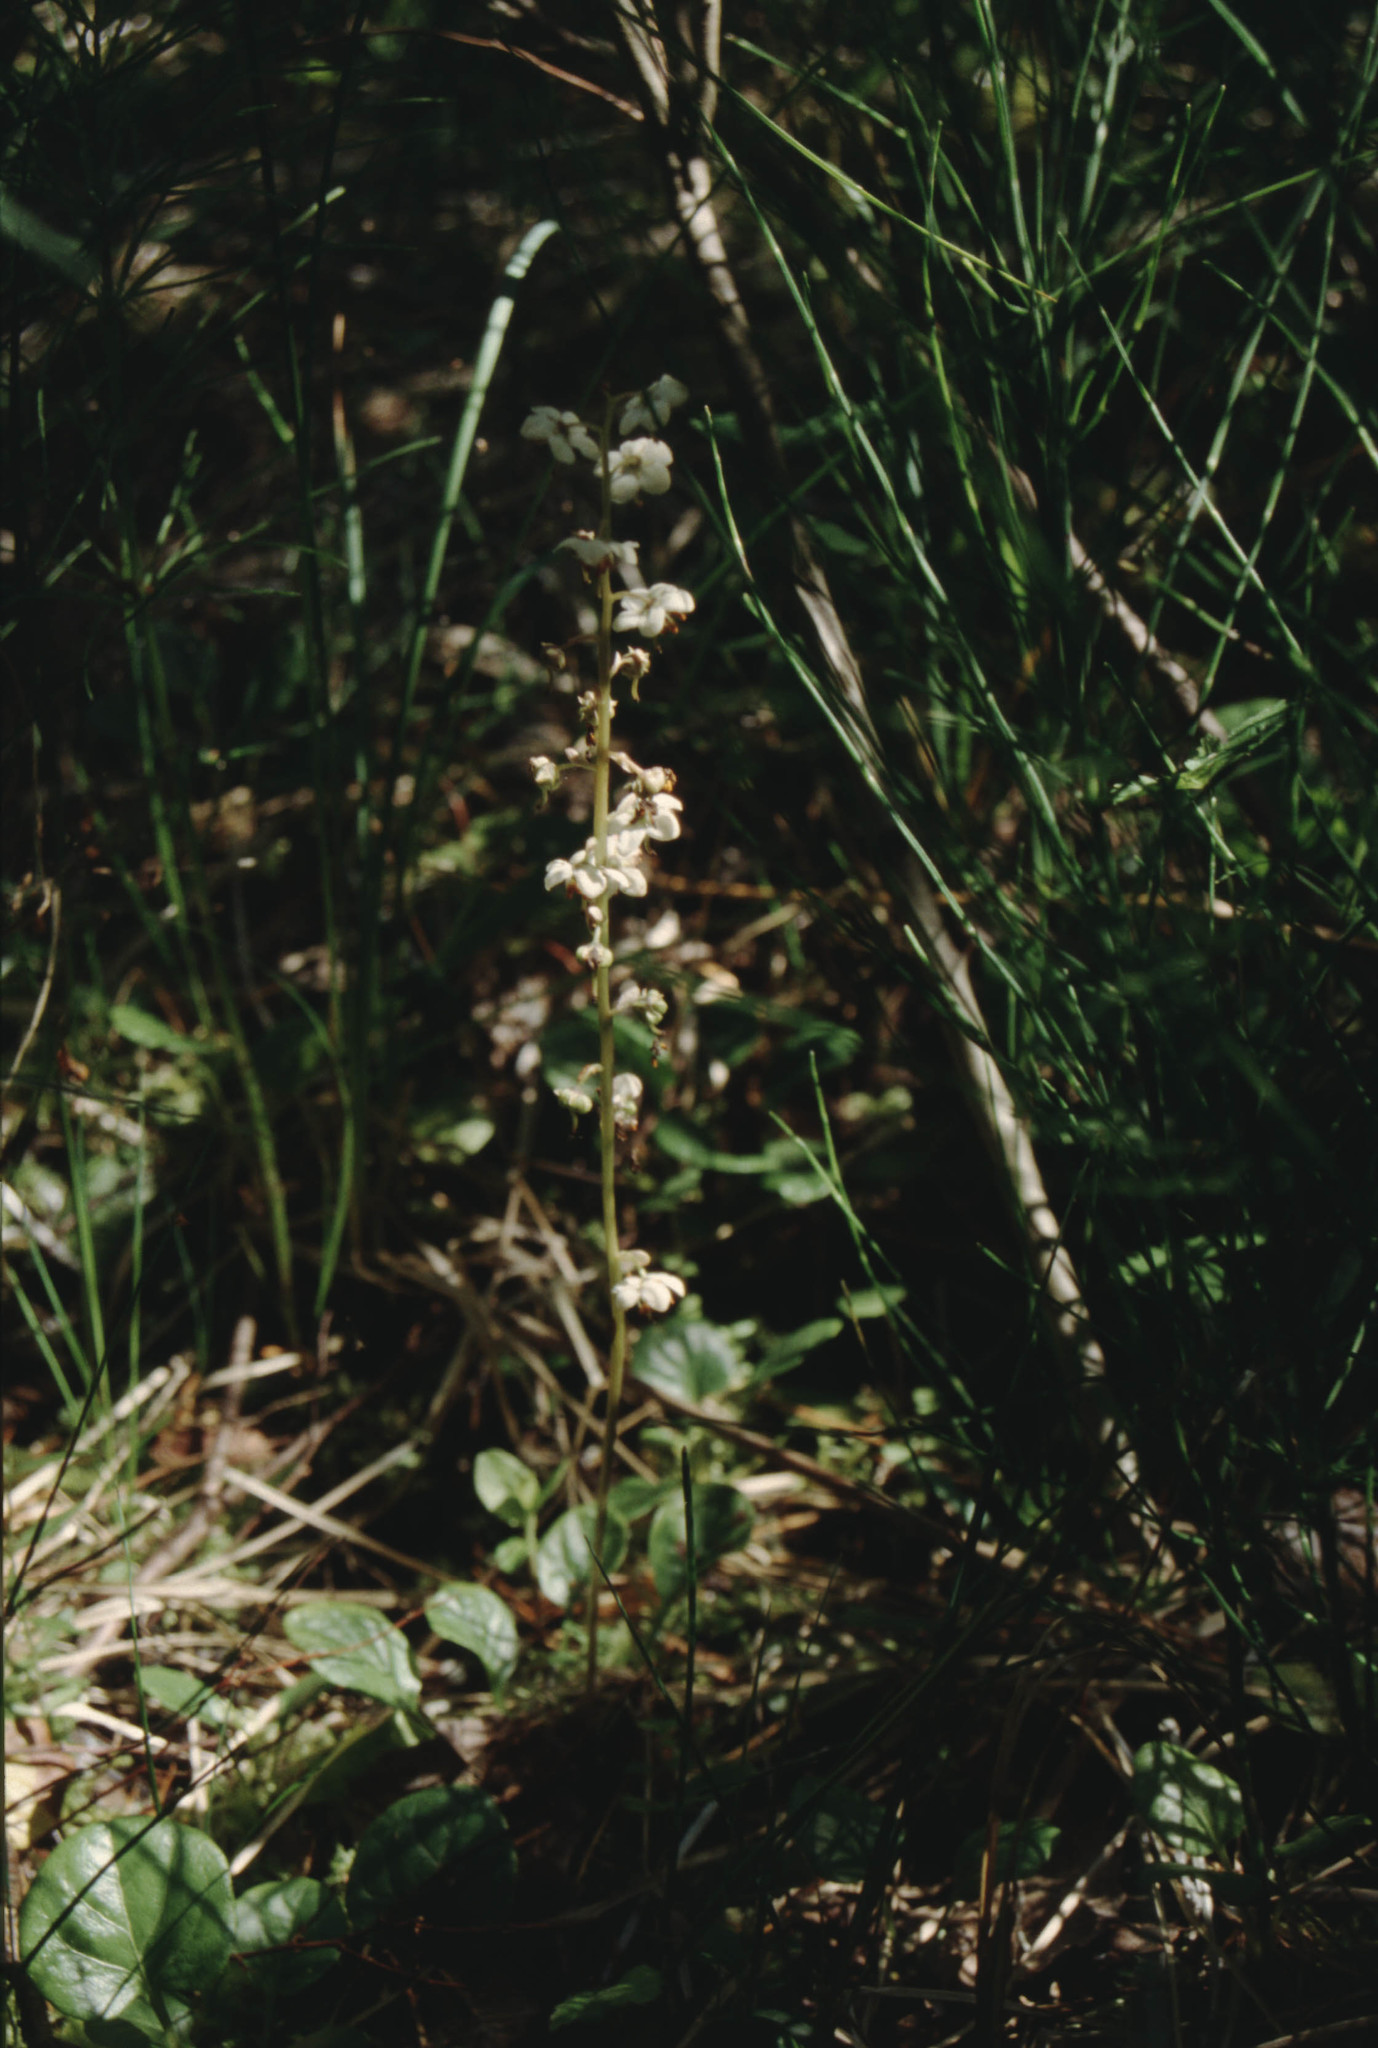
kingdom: Plantae
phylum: Tracheophyta
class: Magnoliopsida
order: Ericales
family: Ericaceae
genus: Pyrola
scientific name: Pyrola rotundifolia
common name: Round-leaved wintergreen
